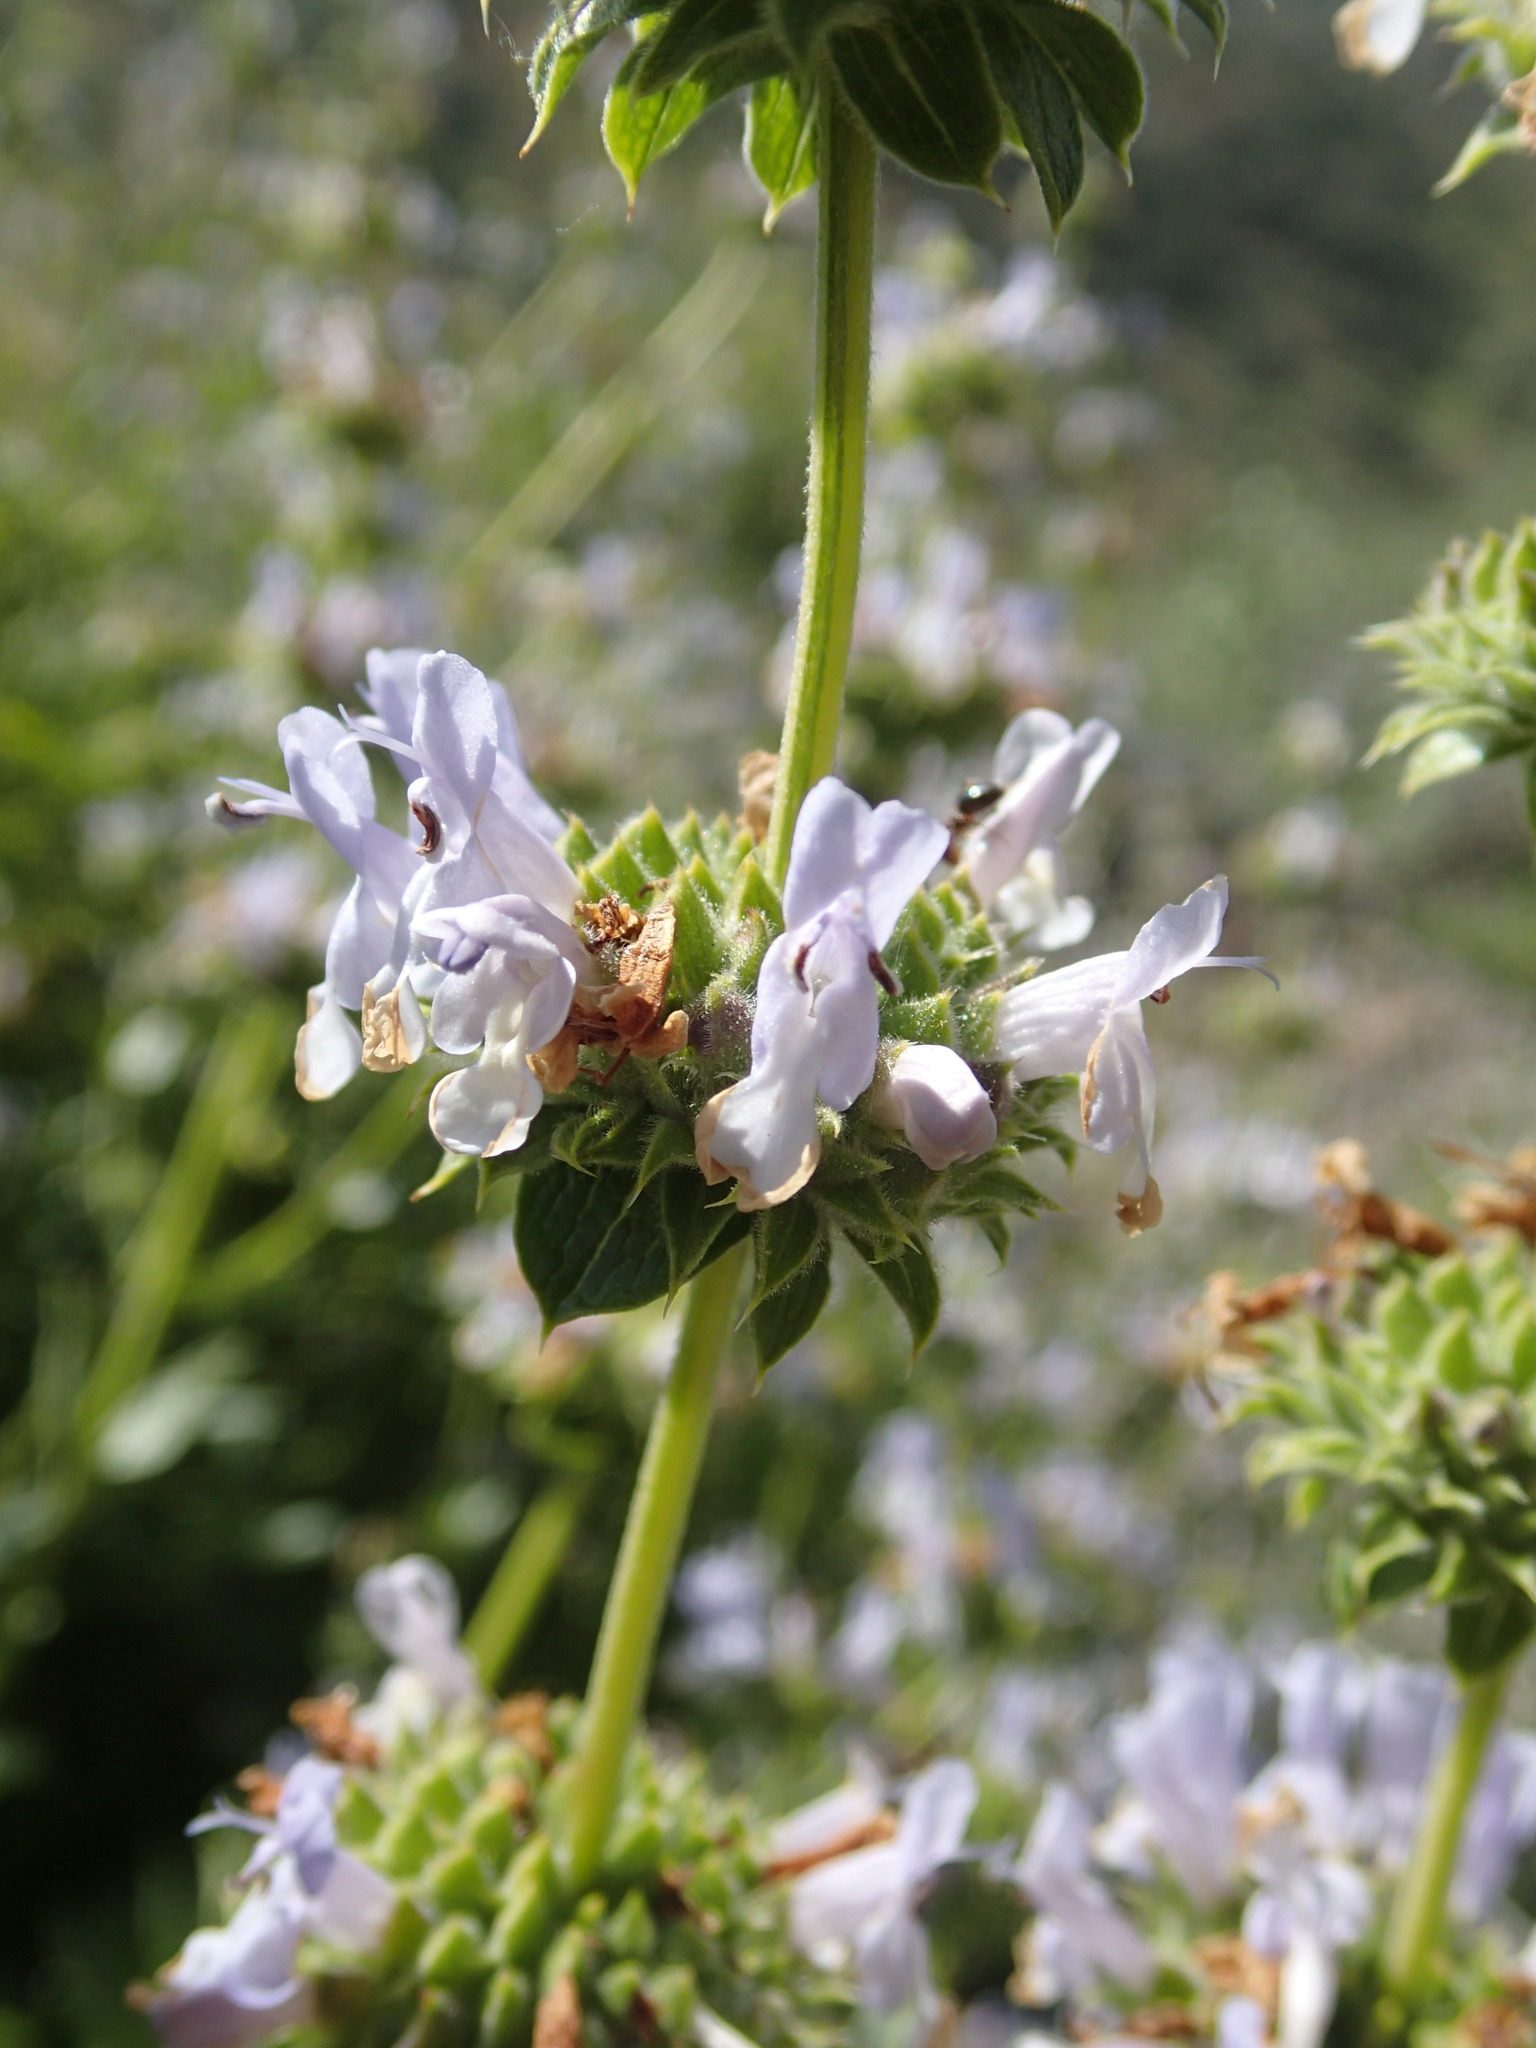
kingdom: Plantae
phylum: Tracheophyta
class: Magnoliopsida
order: Lamiales
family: Lamiaceae
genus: Salvia
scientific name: Salvia mellifera
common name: Black sage
